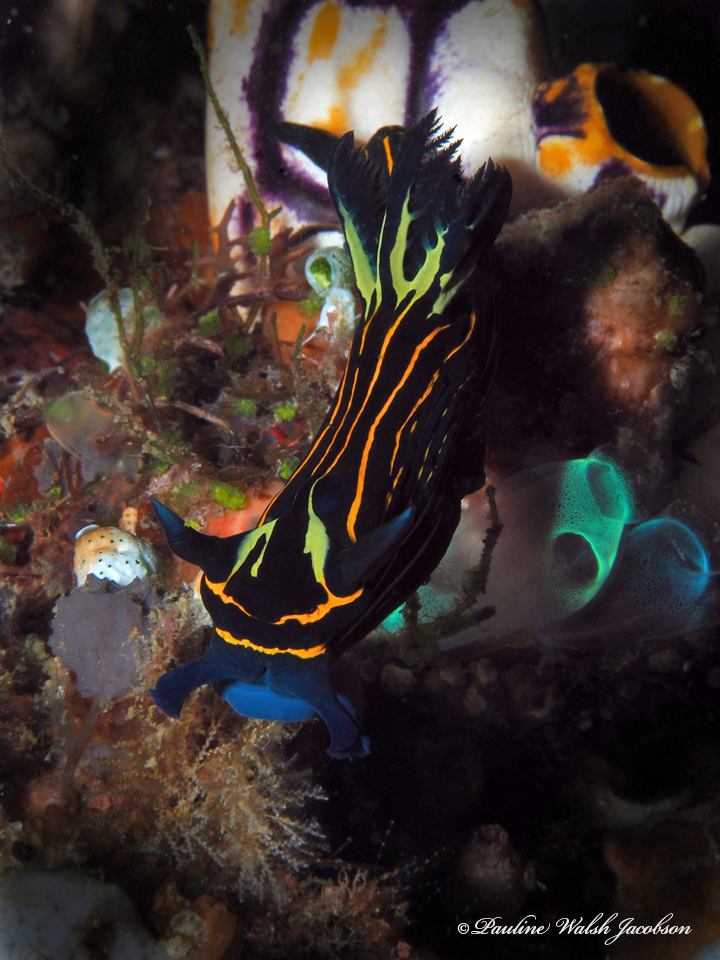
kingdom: Animalia
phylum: Mollusca
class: Gastropoda
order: Nudibranchia
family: Polyceridae
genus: Tyrannodoris
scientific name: Tyrannodoris luteolineata
